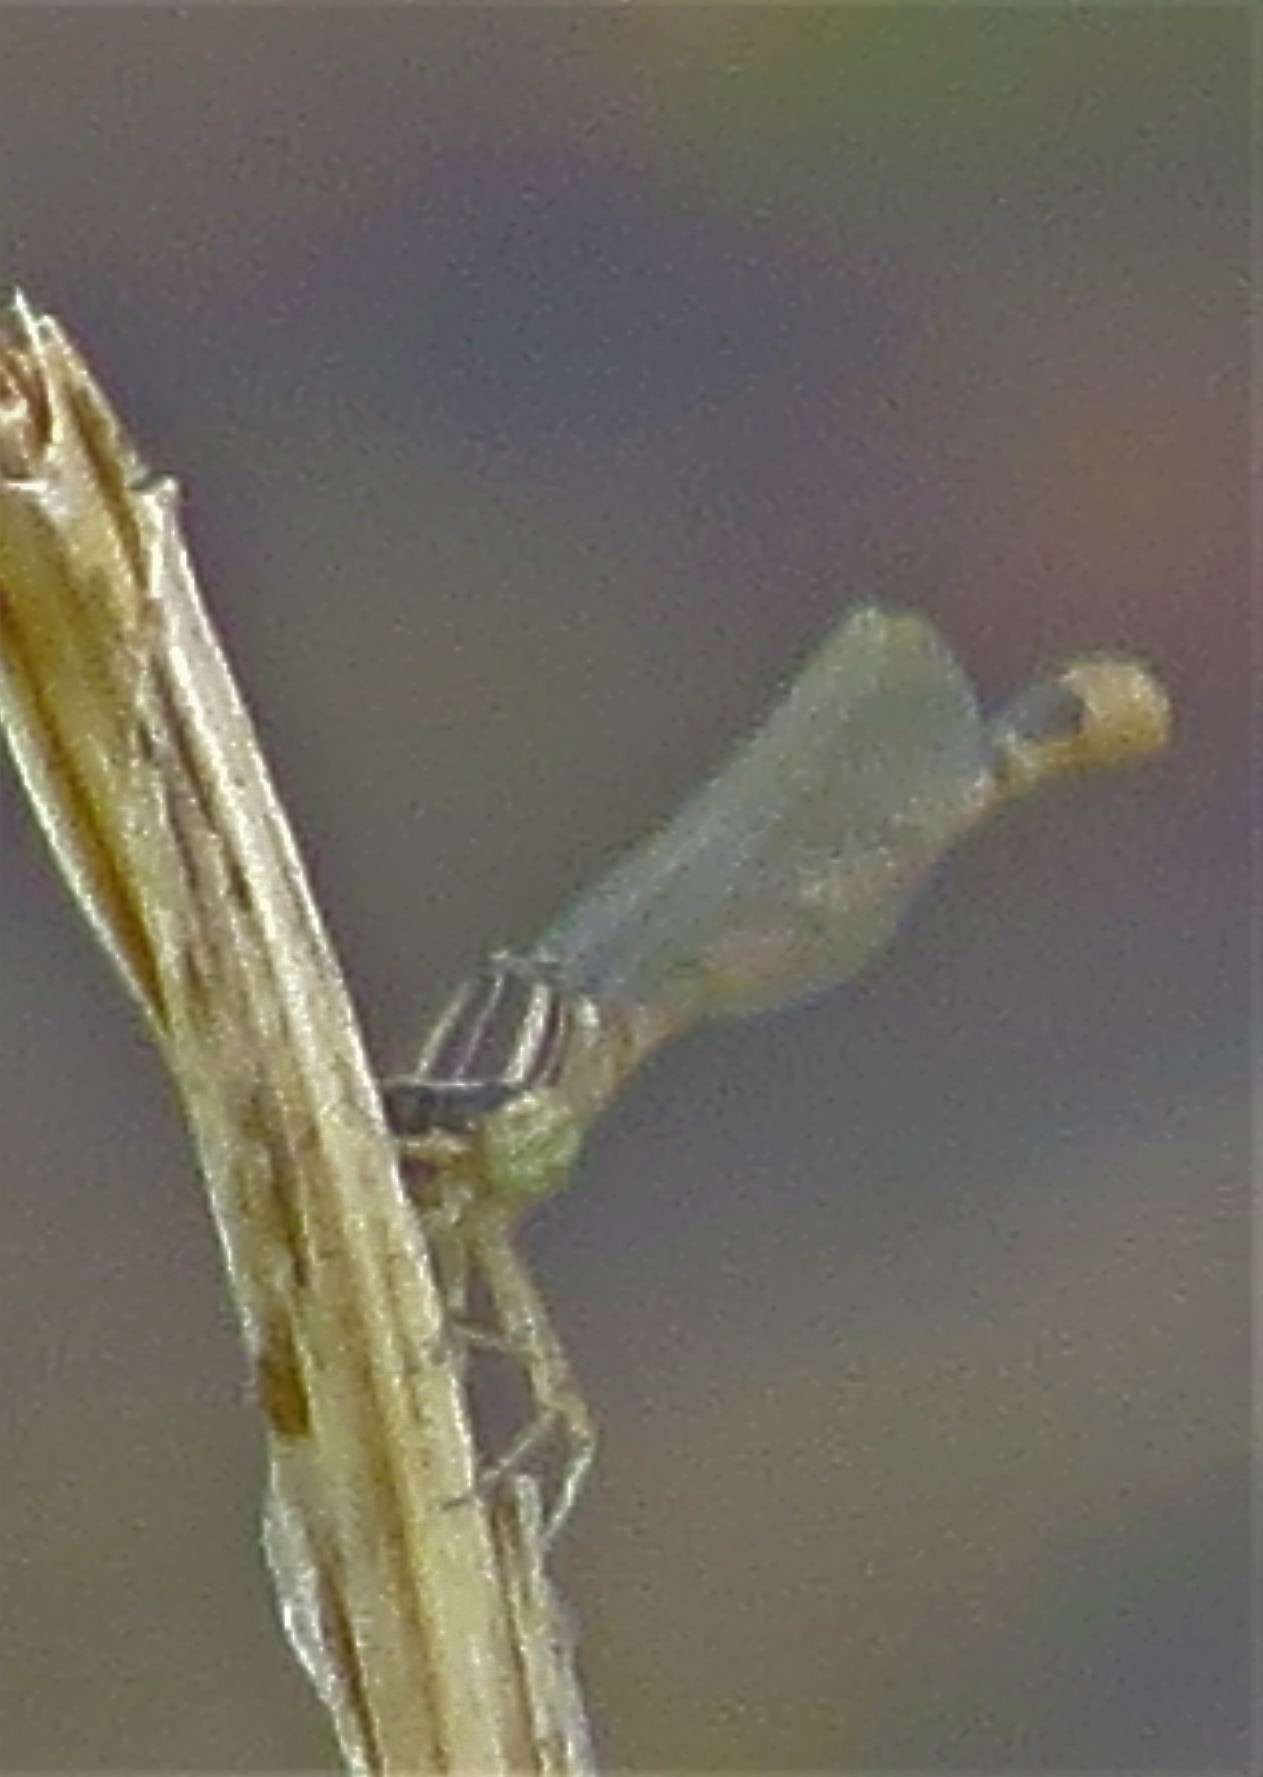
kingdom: Animalia
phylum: Arthropoda
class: Insecta
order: Odonata
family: Coenagrionidae
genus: Enallagma
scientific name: Enallagma basidens
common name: Double-striped bluet
